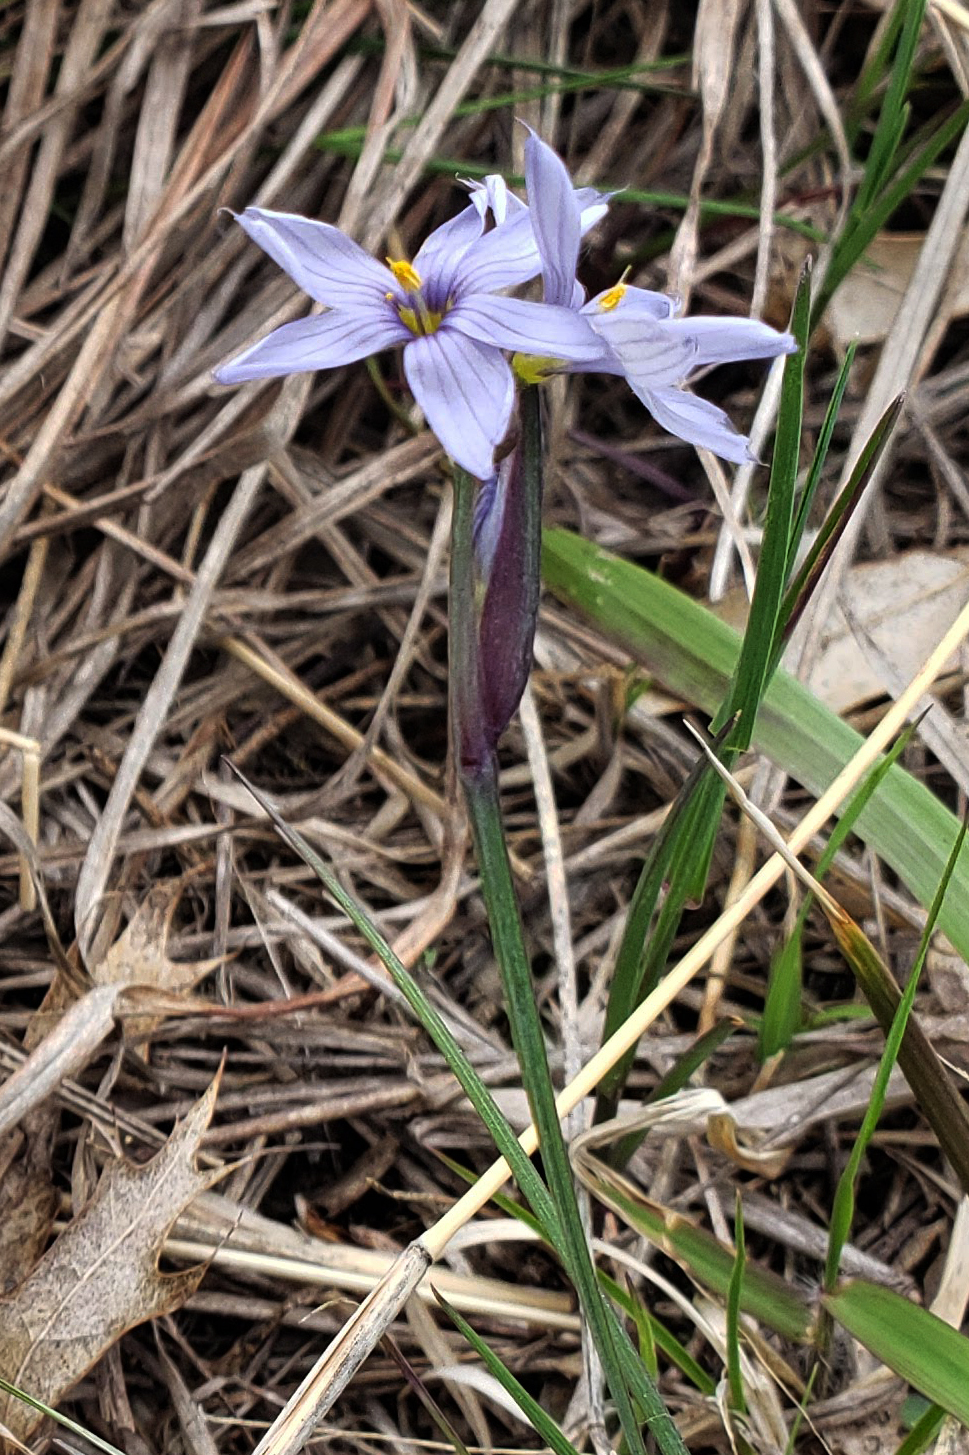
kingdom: Plantae
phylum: Tracheophyta
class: Liliopsida
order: Asparagales
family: Iridaceae
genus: Sisyrinchium
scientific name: Sisyrinchium campestre
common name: Prairie blue-eyed-grass
